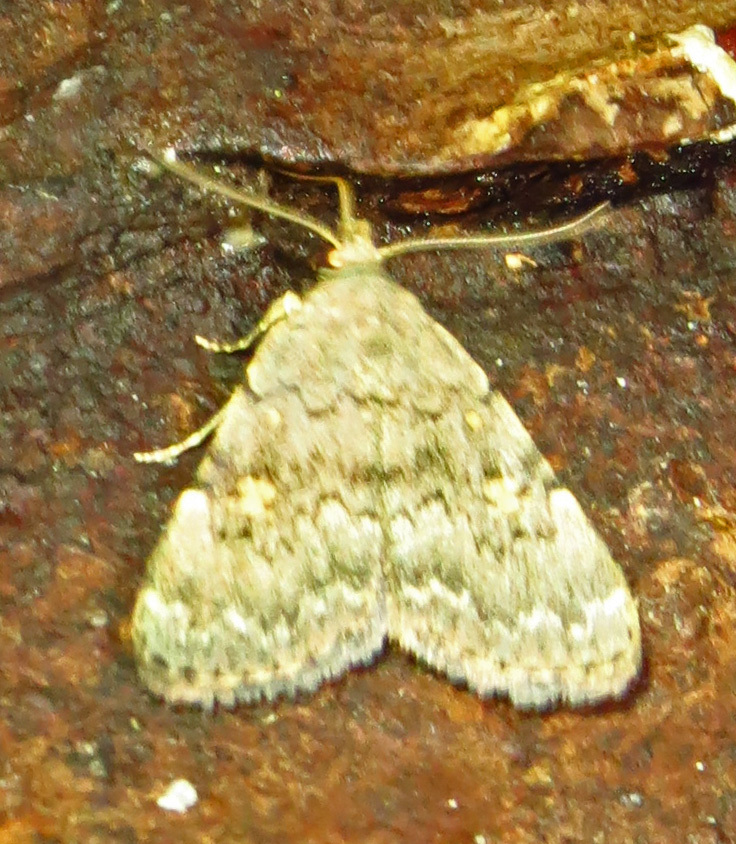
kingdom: Animalia
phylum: Arthropoda
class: Insecta
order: Lepidoptera
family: Erebidae
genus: Idia
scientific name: Idia aemula
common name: Common idia moth
